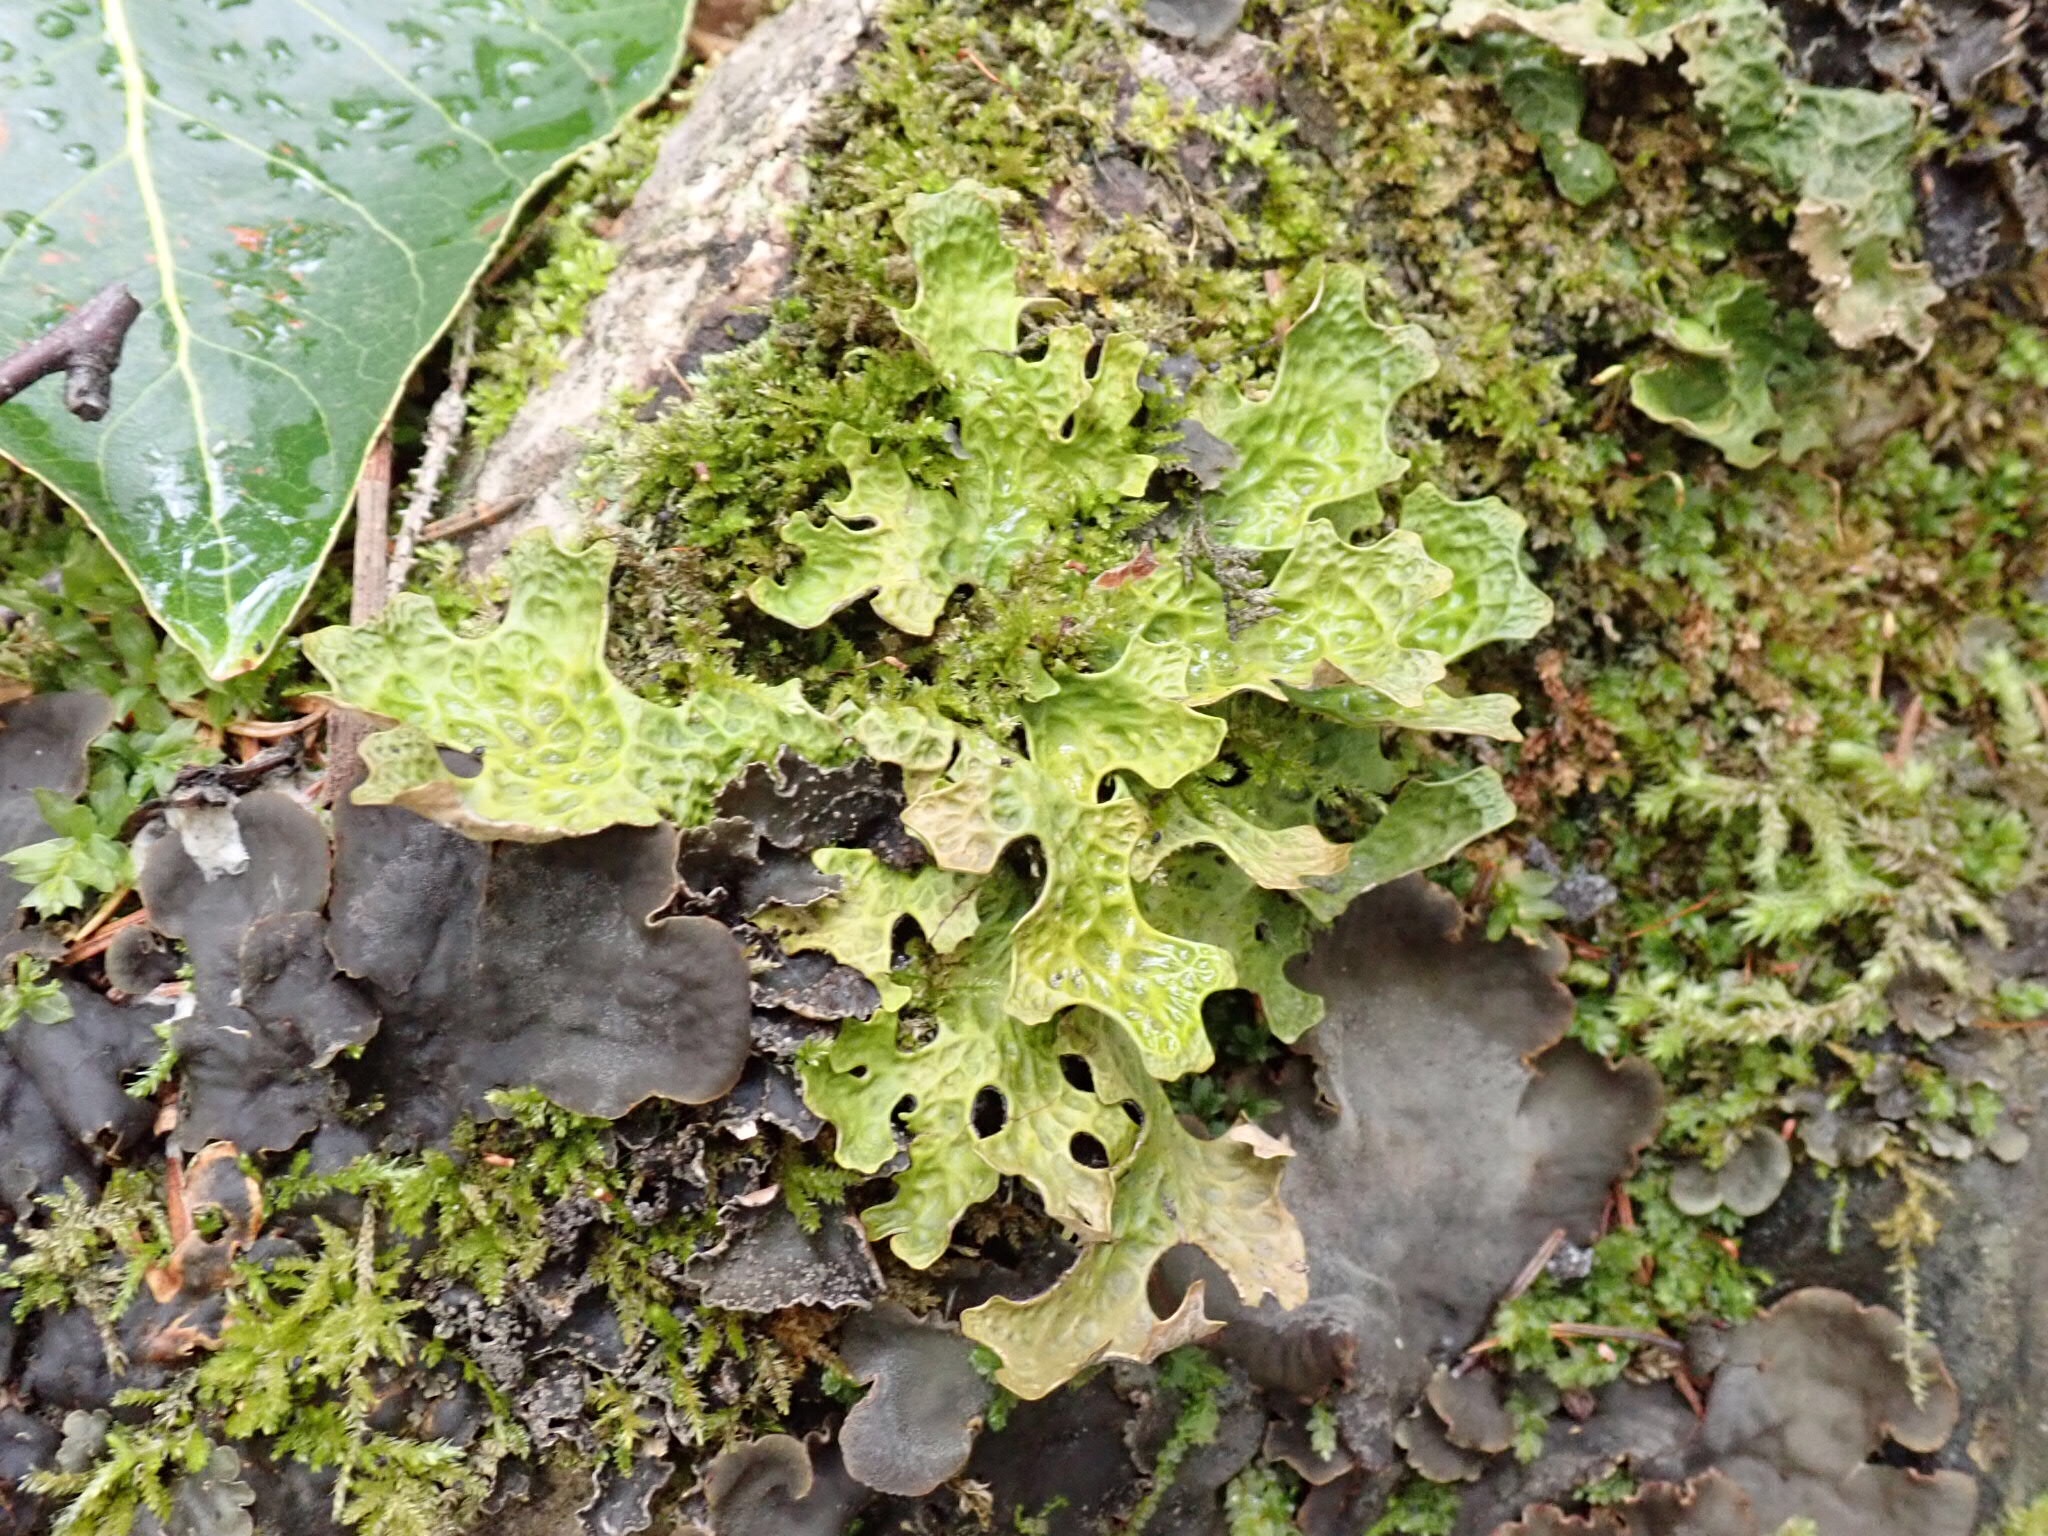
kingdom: Fungi
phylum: Ascomycota
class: Lecanoromycetes
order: Peltigerales
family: Lobariaceae
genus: Lobaria
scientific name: Lobaria pulmonaria
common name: Lungwort
